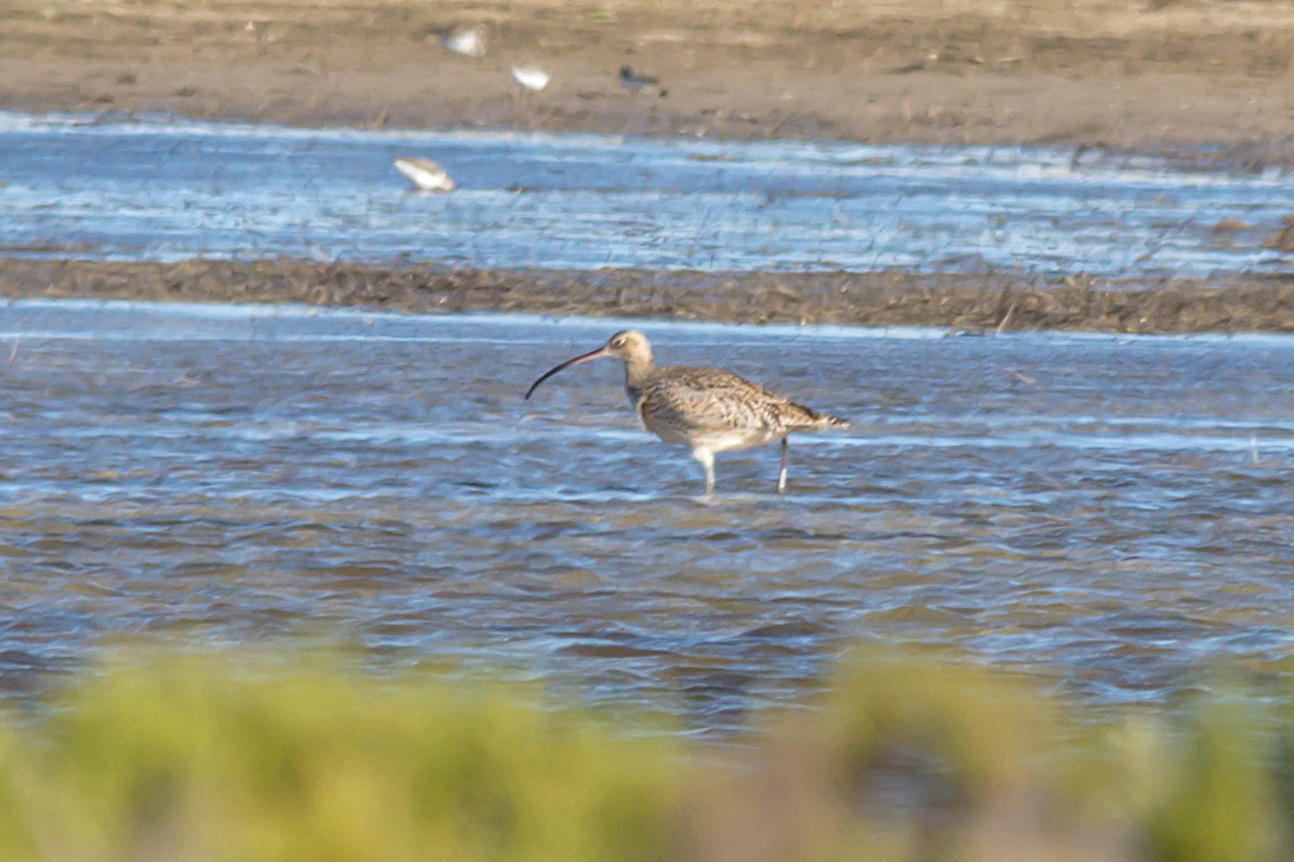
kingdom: Animalia
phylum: Chordata
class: Aves
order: Charadriiformes
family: Scolopacidae
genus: Numenius
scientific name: Numenius madagascariensis
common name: Far eastern curlew
